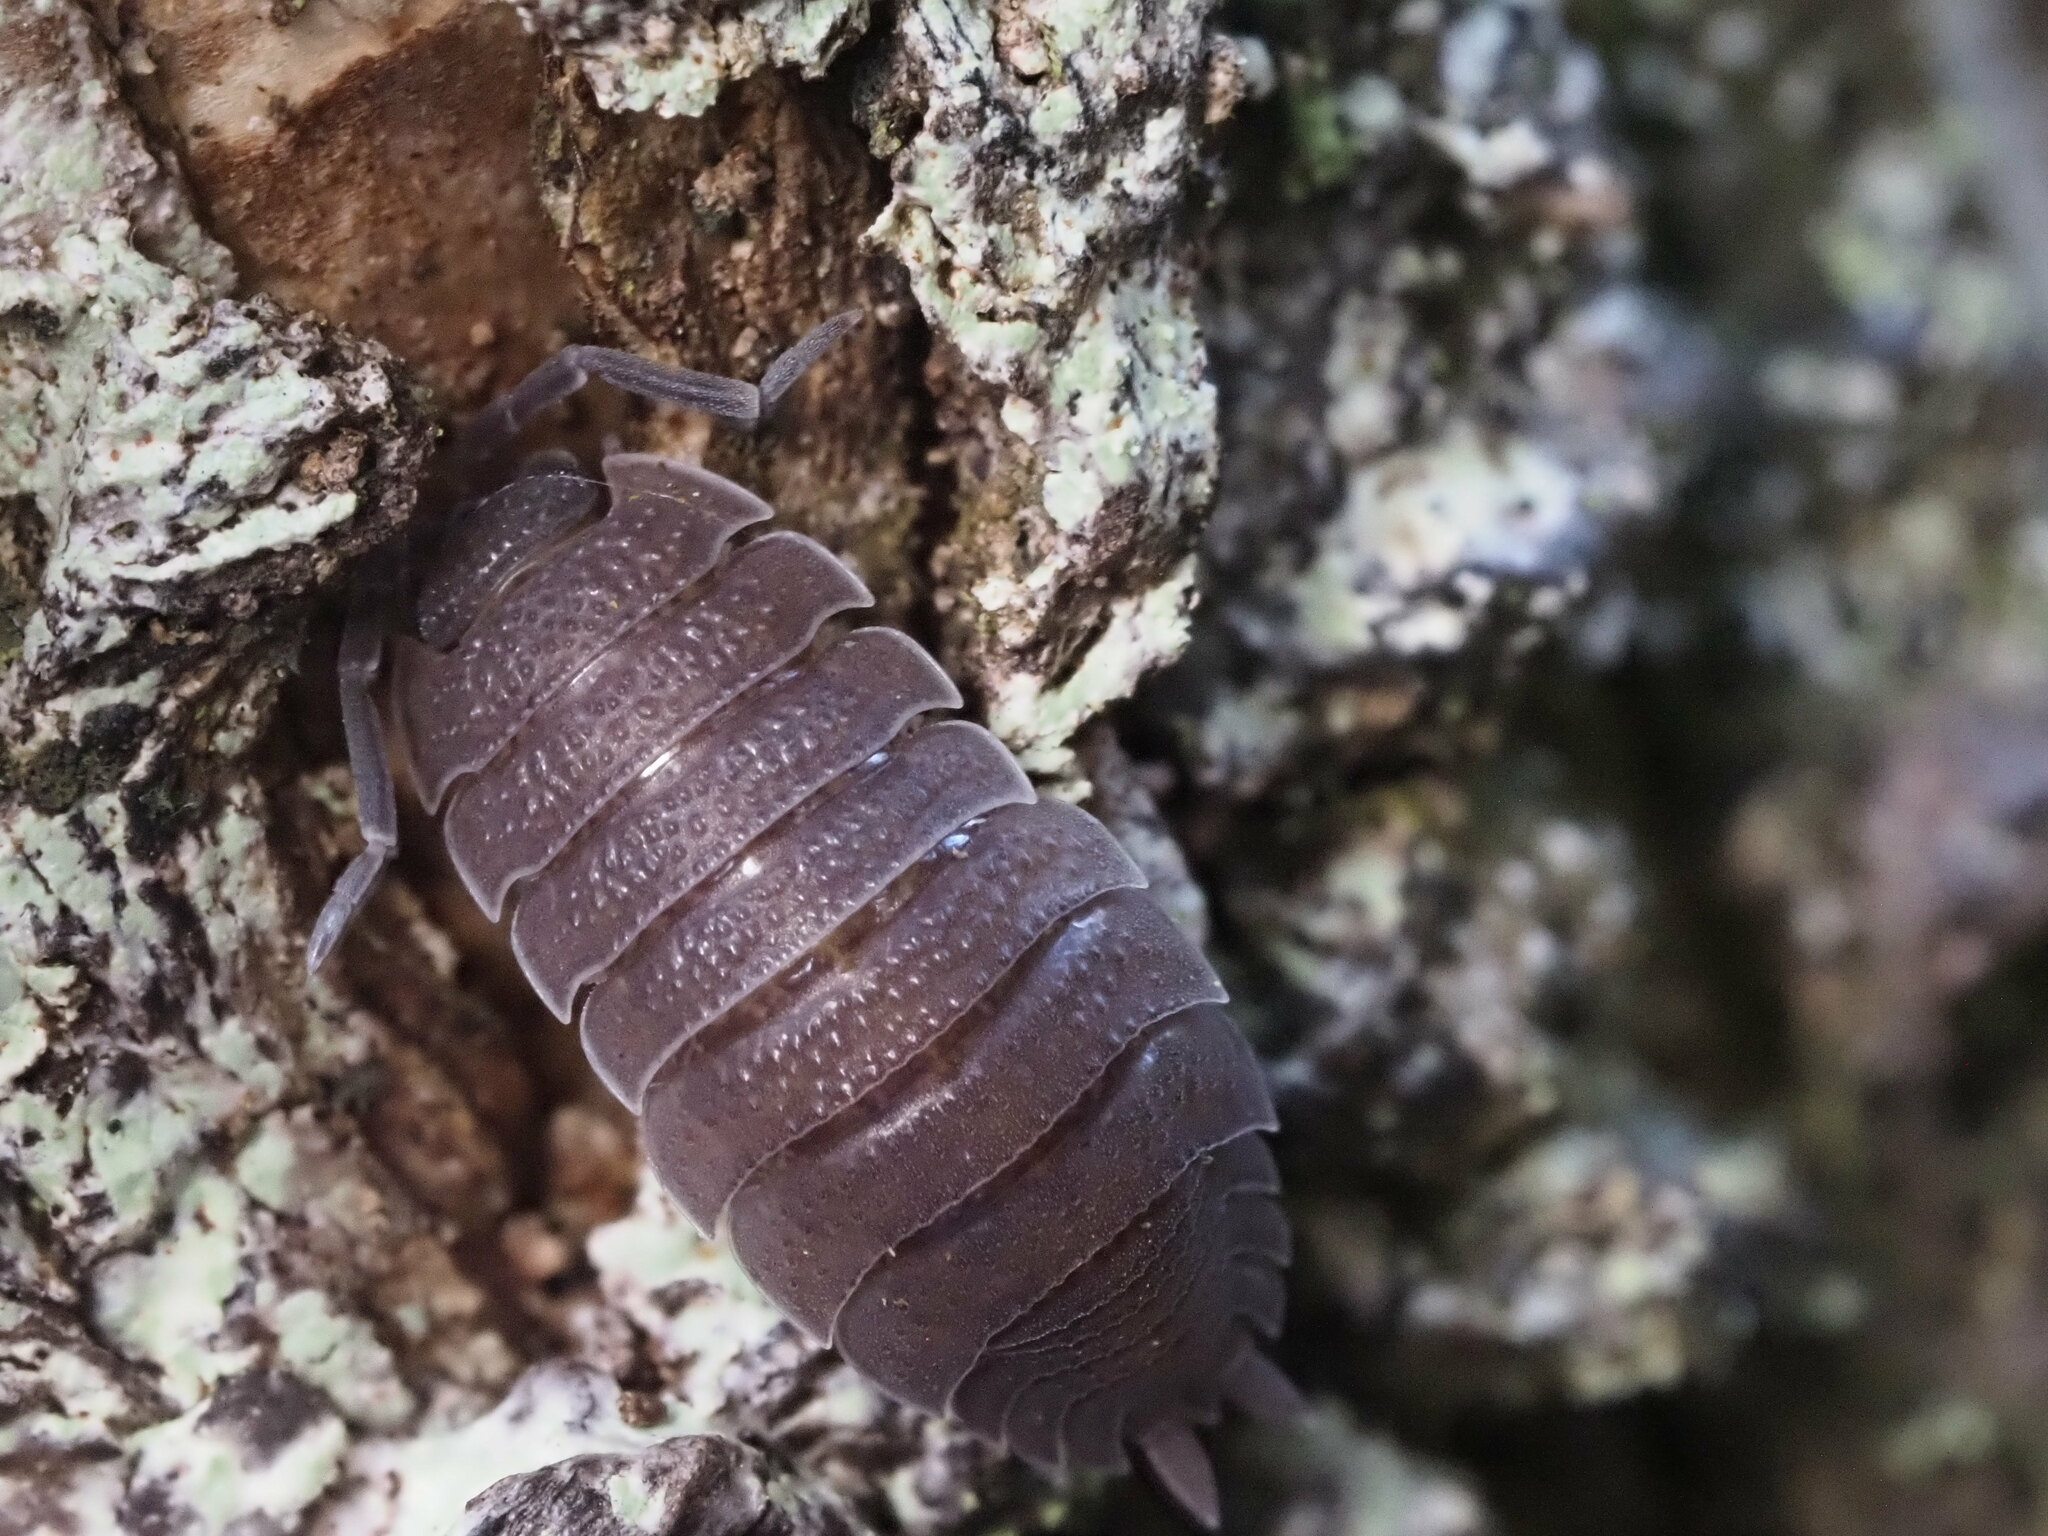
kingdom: Animalia
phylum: Arthropoda
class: Malacostraca
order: Isopoda
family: Porcellionidae
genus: Porcellio
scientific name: Porcellio scaber
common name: Common rough woodlouse
